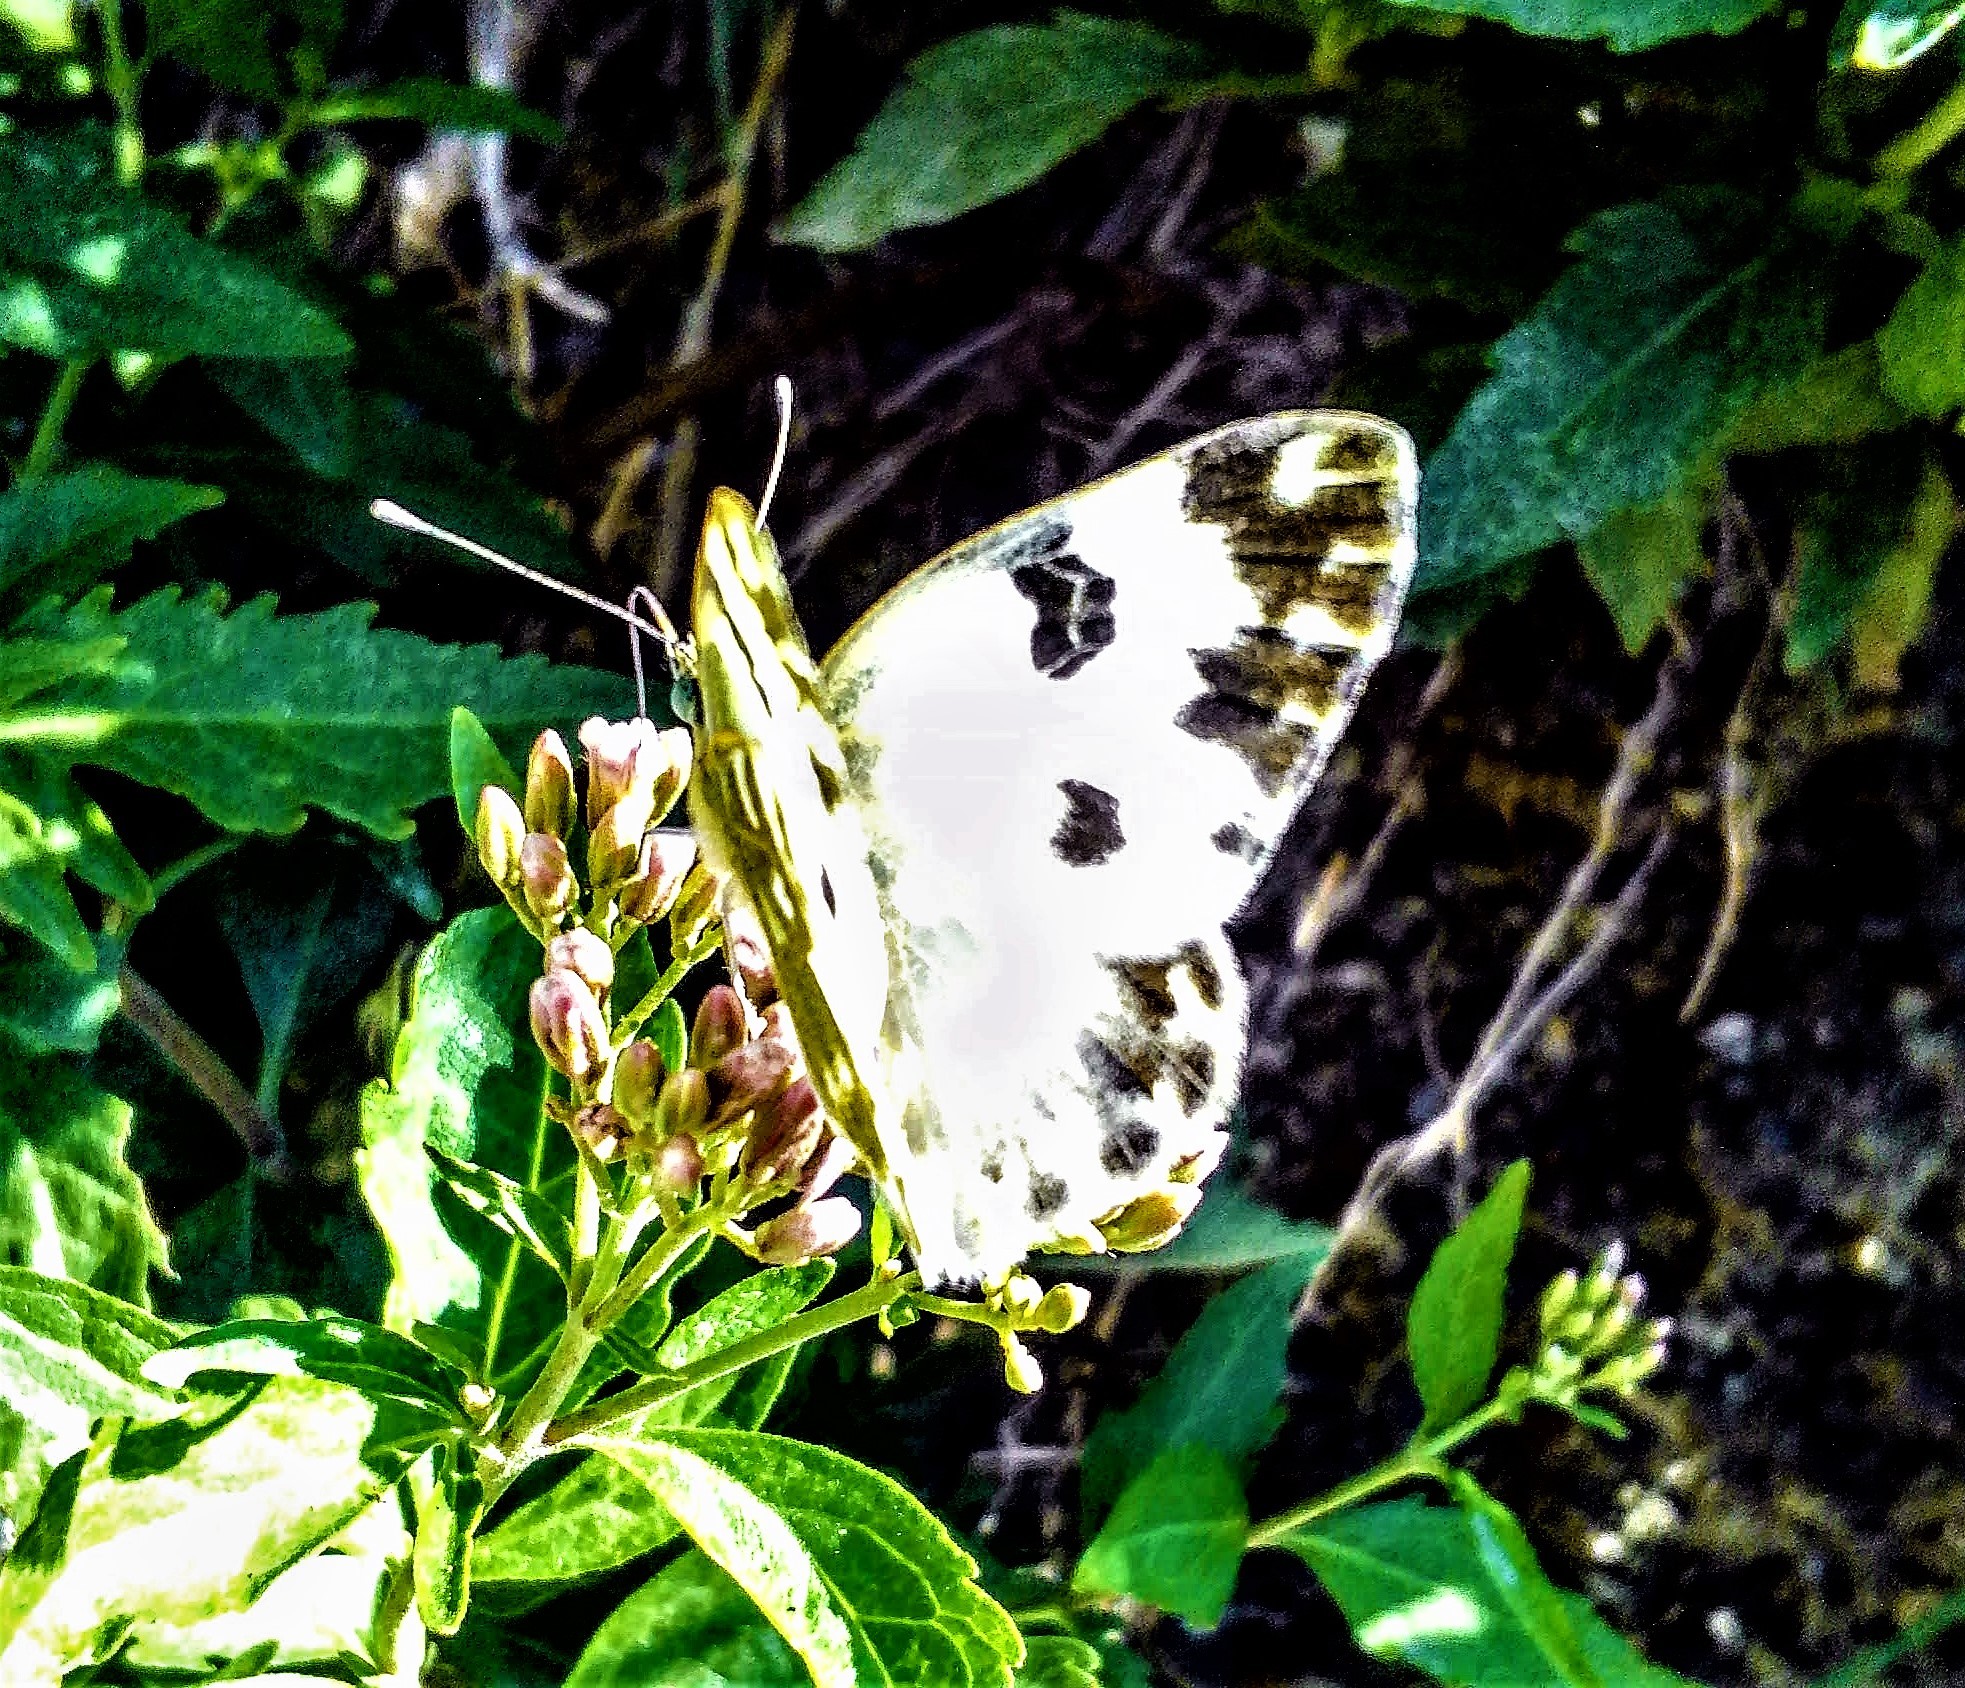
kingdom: Animalia
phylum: Arthropoda
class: Insecta
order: Lepidoptera
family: Pieridae
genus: Pontia
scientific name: Pontia edusa
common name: Eastern bath white
